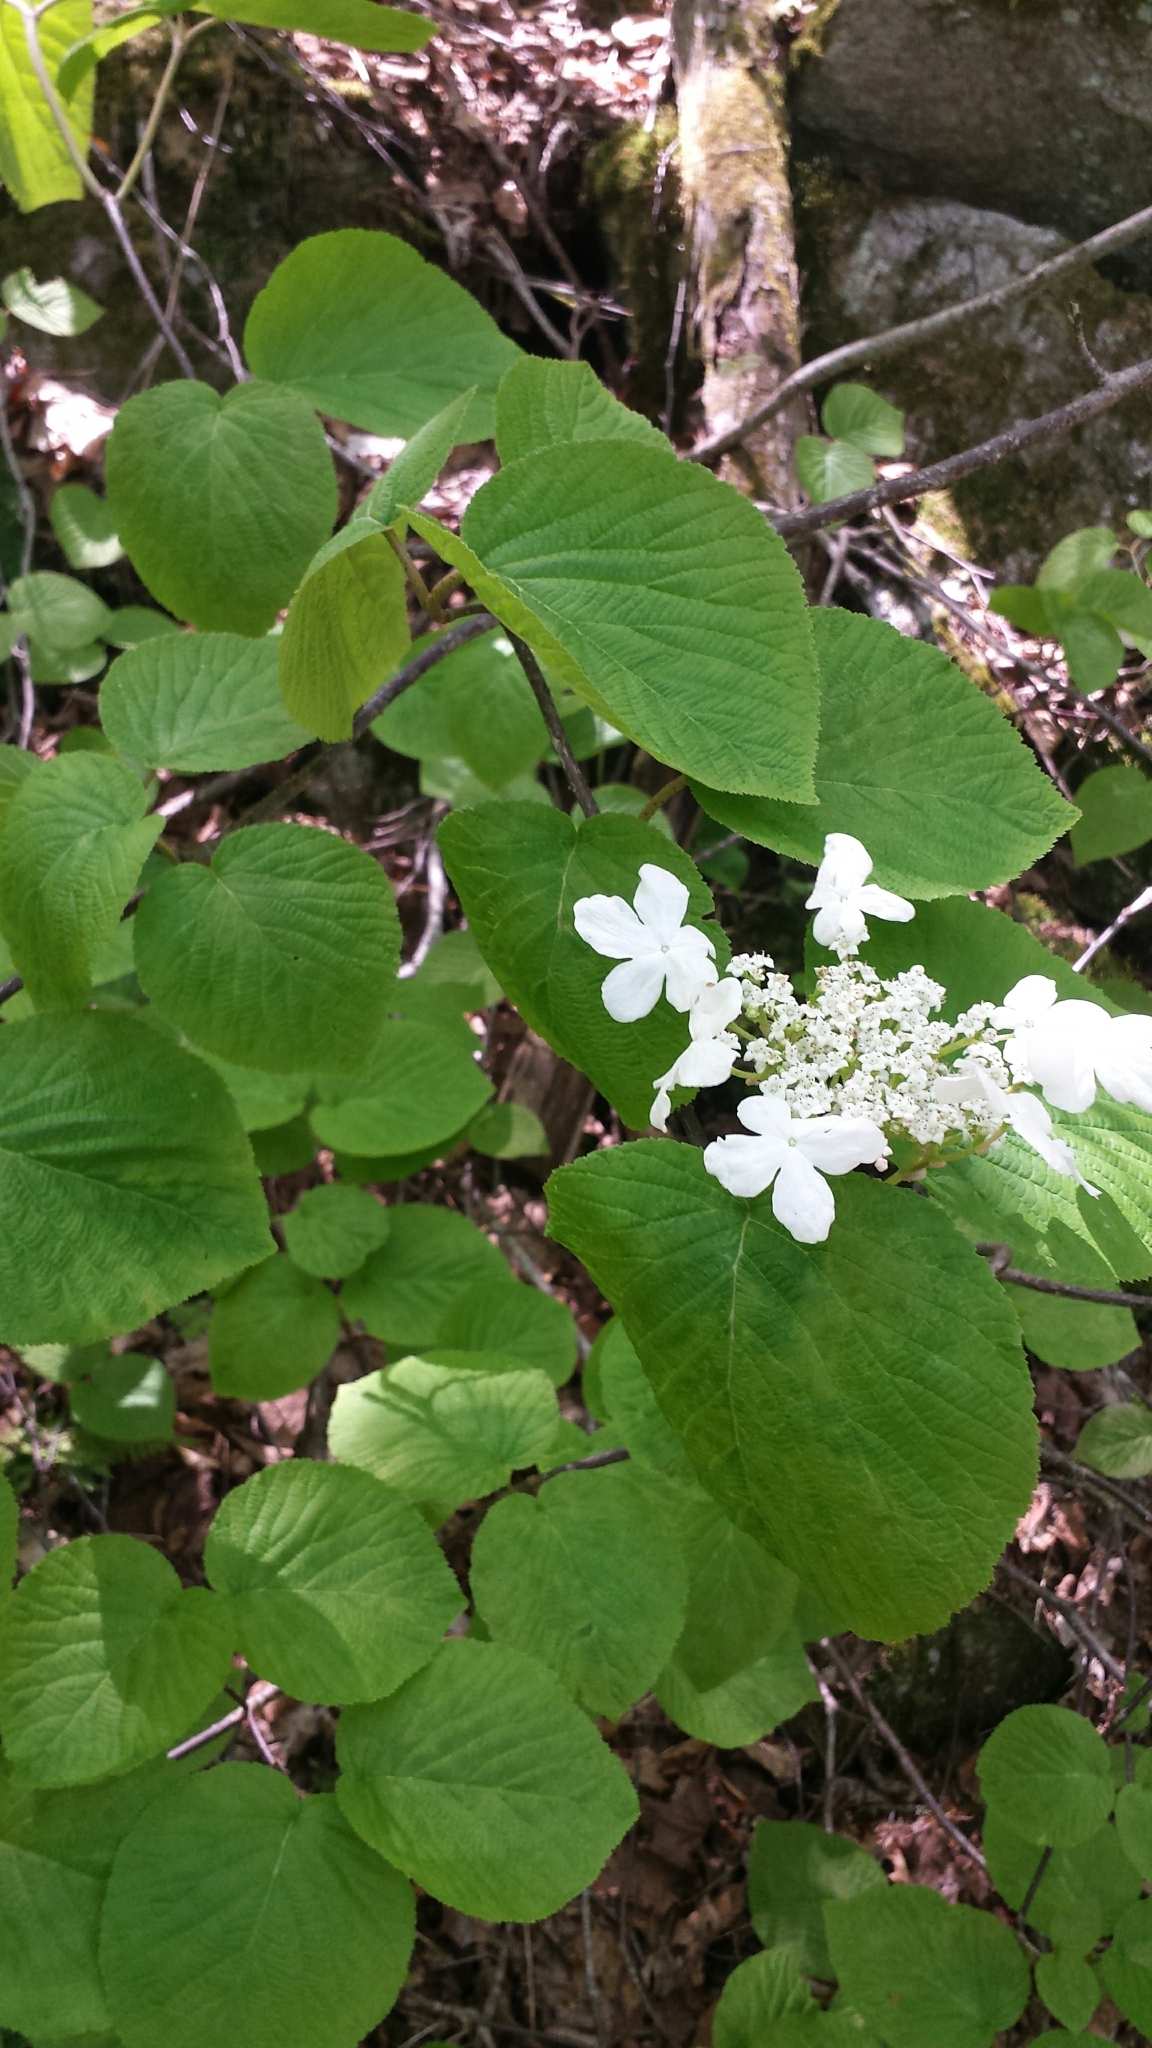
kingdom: Plantae
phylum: Tracheophyta
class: Magnoliopsida
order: Dipsacales
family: Viburnaceae
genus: Viburnum
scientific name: Viburnum lantanoides
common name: Hobblebush
